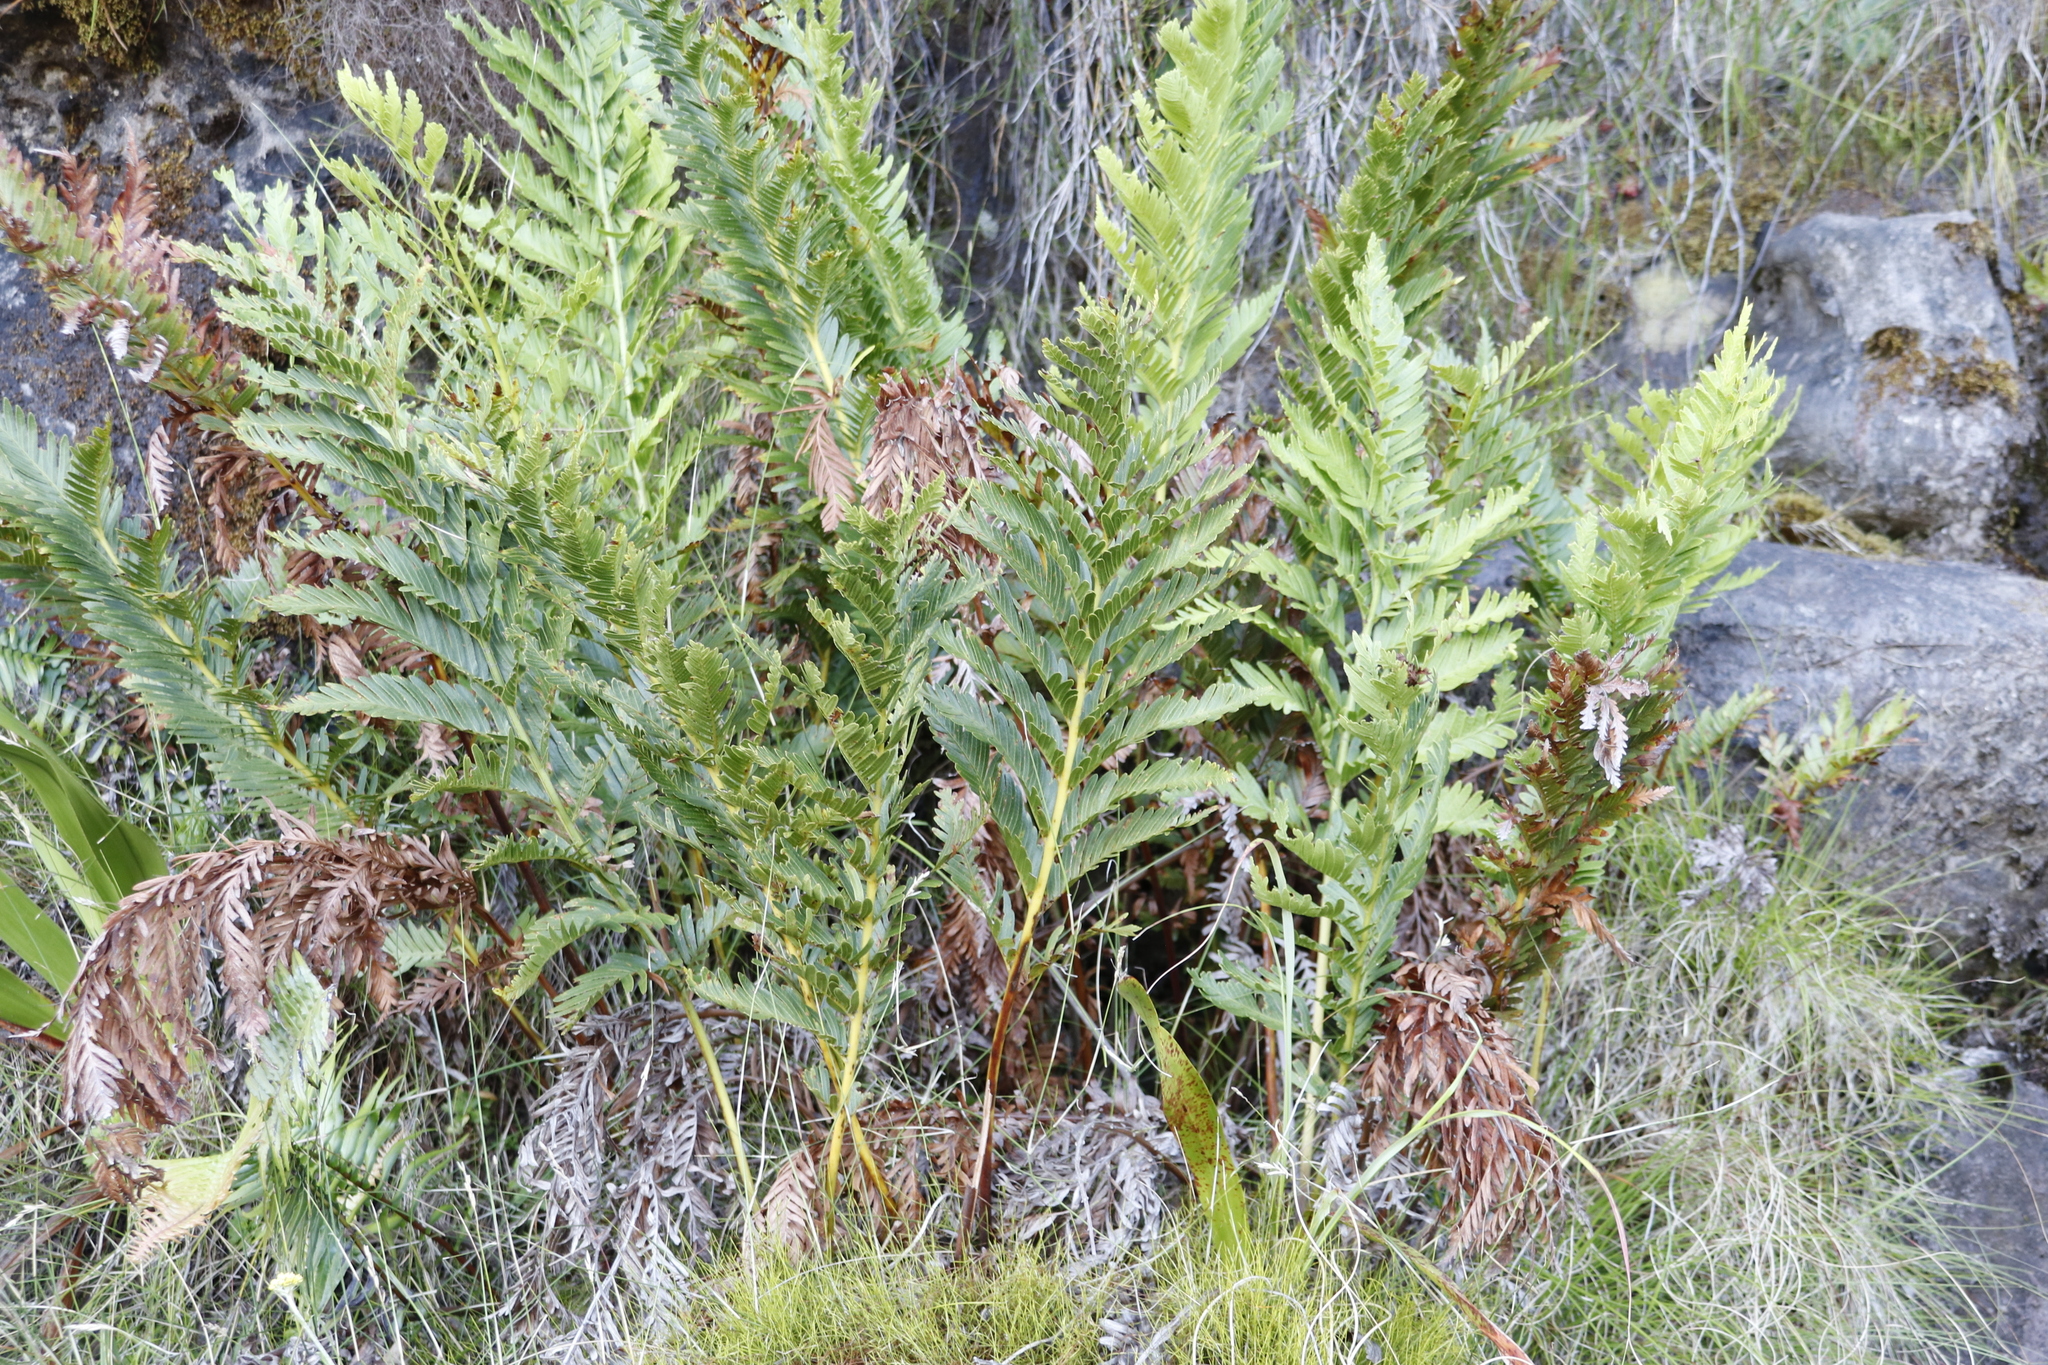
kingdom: Plantae
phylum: Tracheophyta
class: Polypodiopsida
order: Osmundales
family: Osmundaceae
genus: Todea
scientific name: Todea barbara
